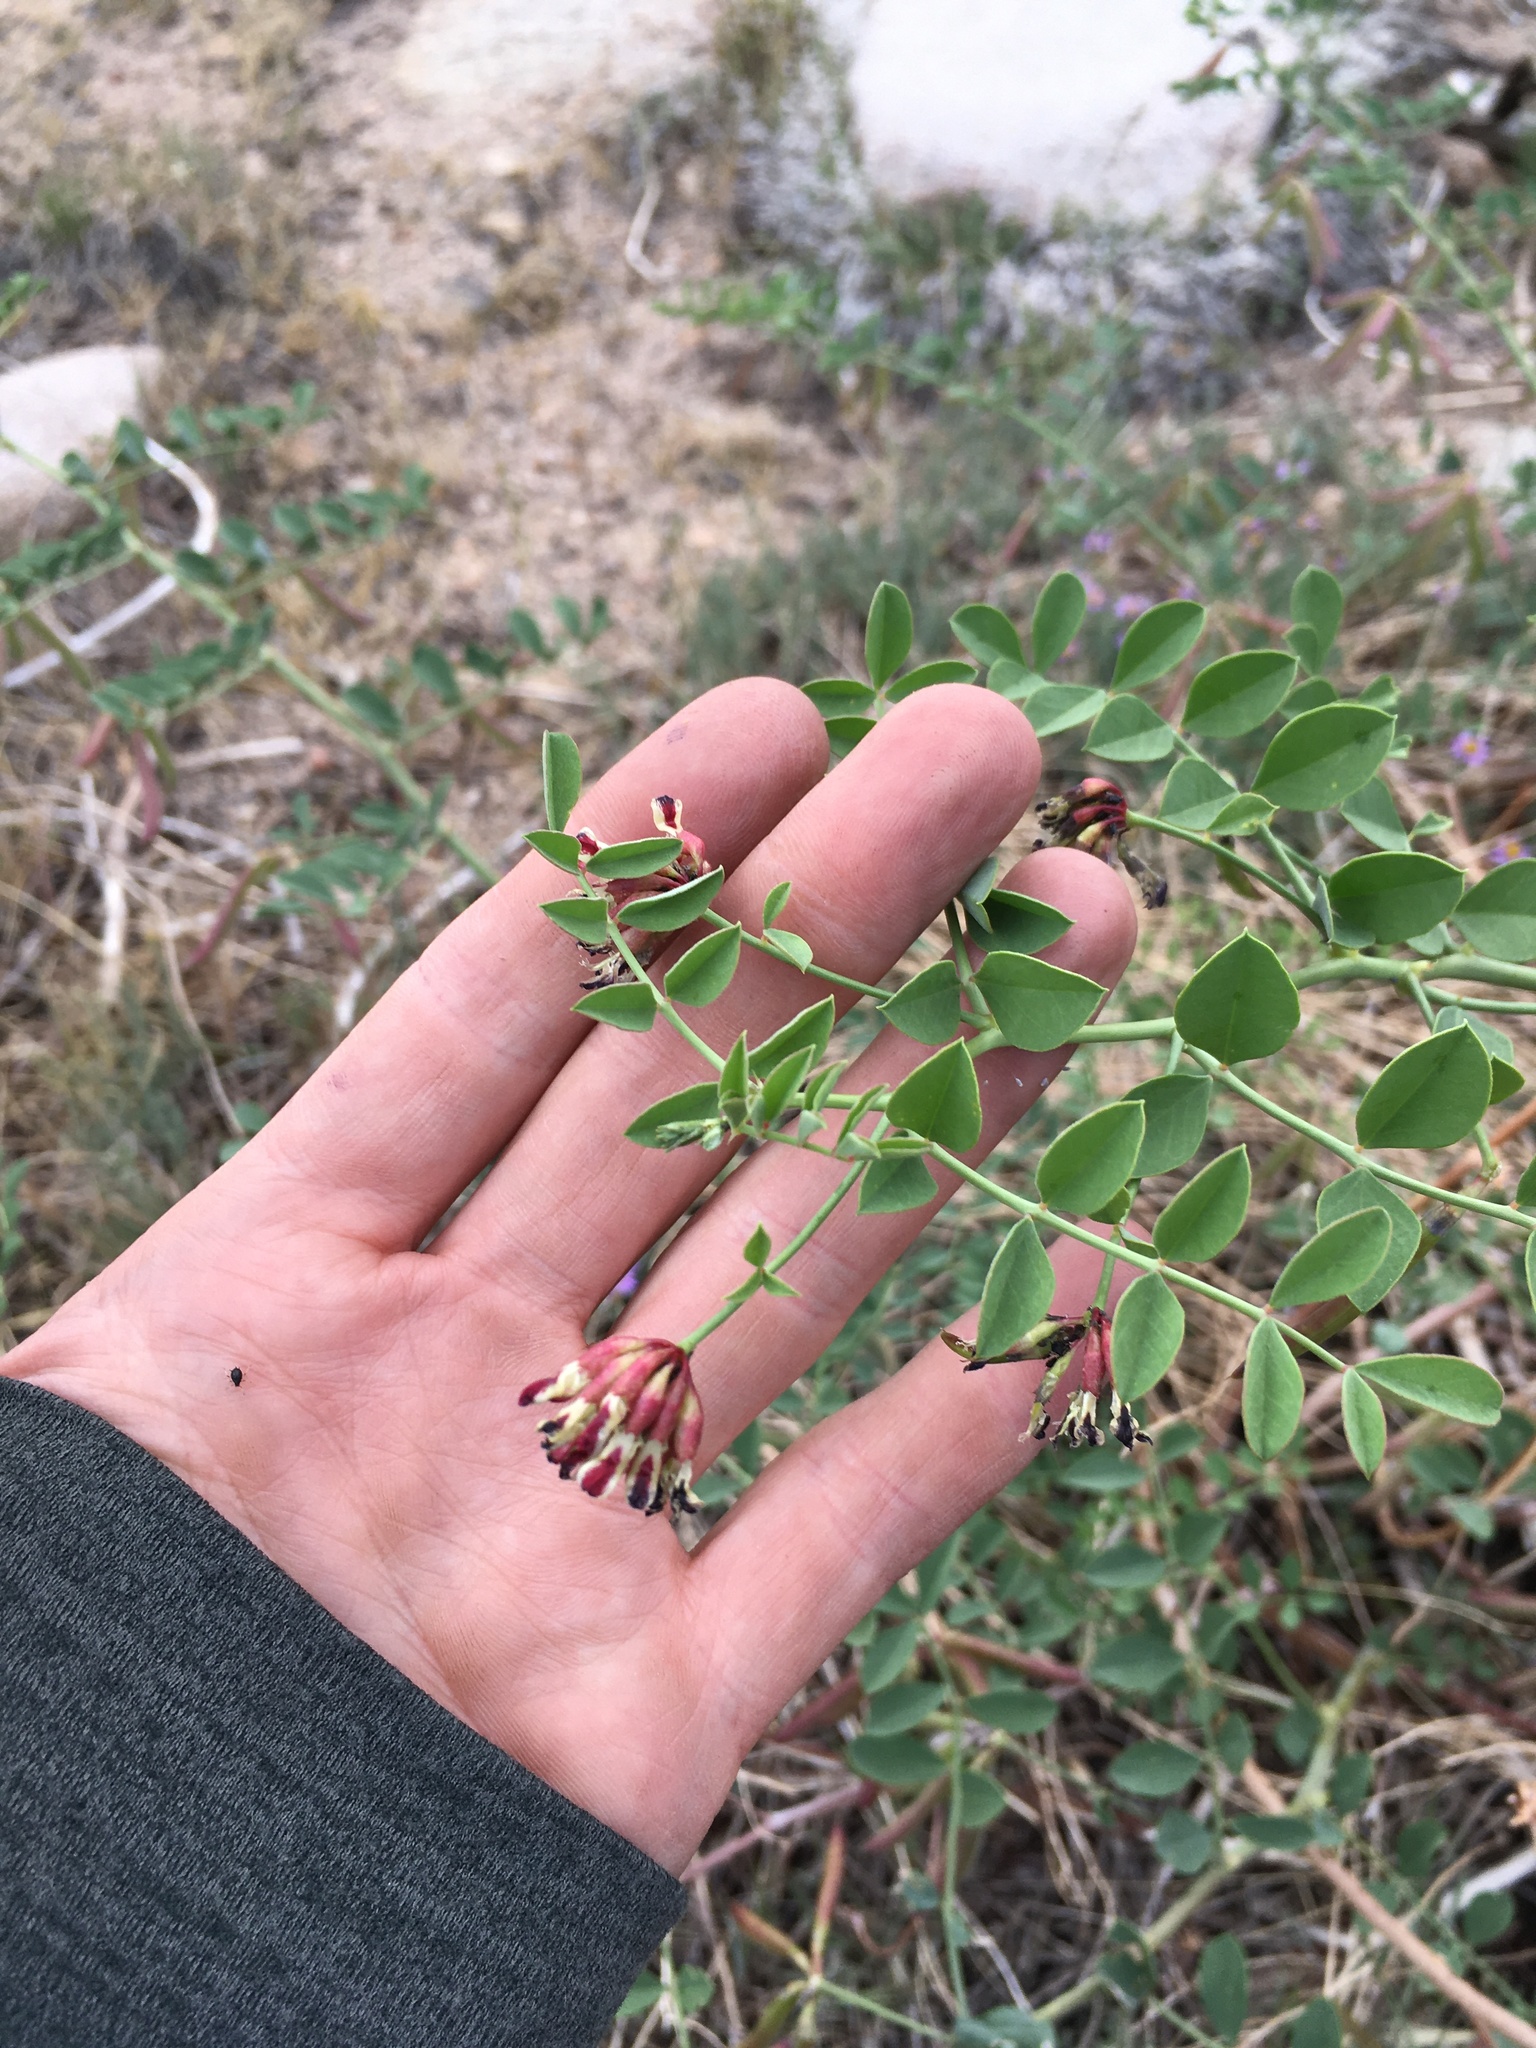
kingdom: Plantae
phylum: Tracheophyta
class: Magnoliopsida
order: Fabales
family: Fabaceae
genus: Hosackia
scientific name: Hosackia crassifolia
